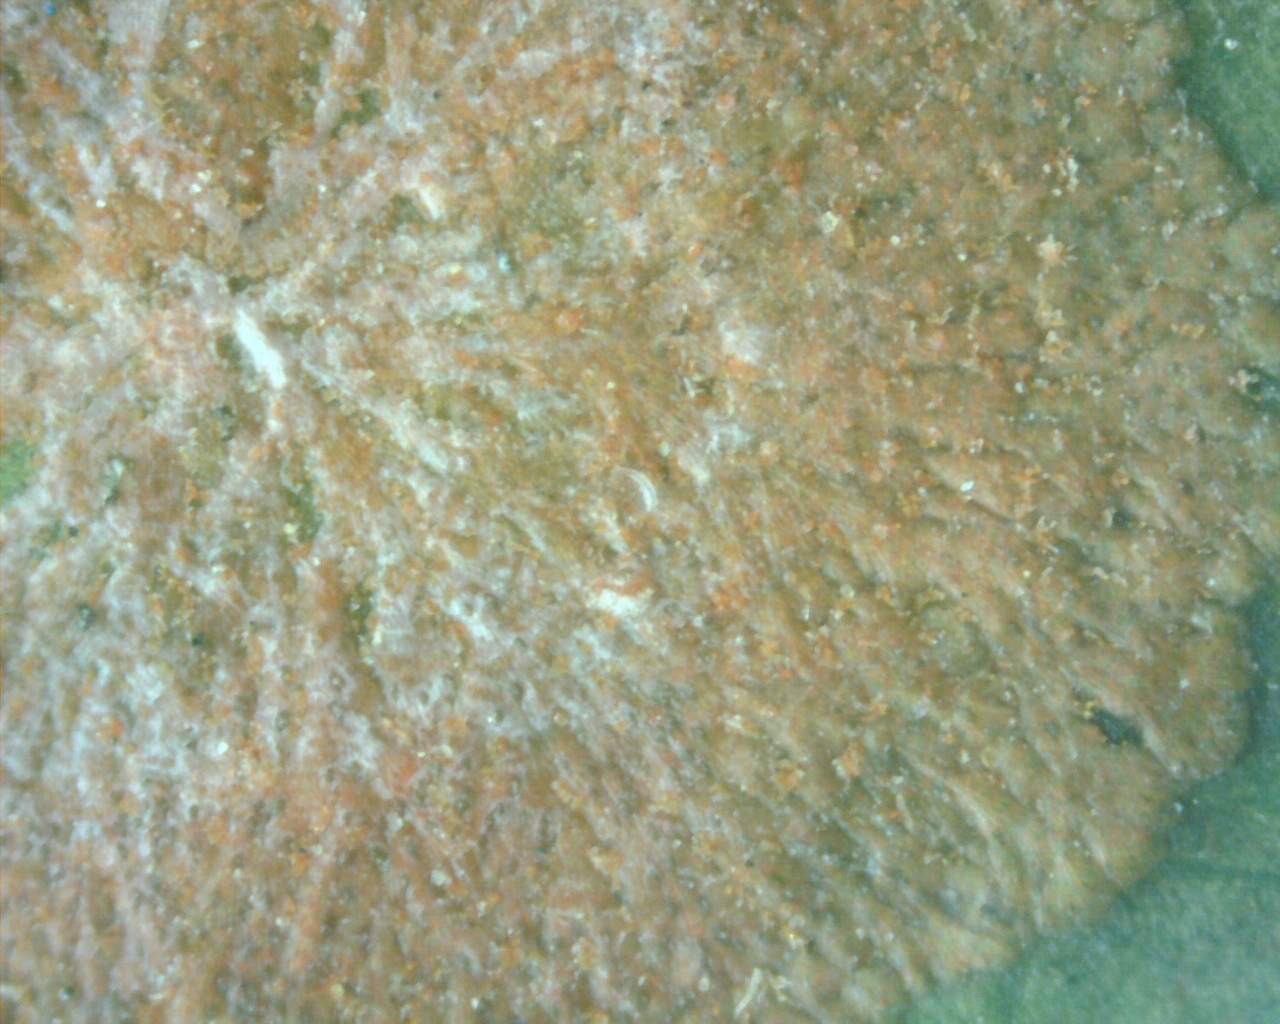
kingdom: Plantae
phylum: Chlorophyta
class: Ulvophyceae
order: Trentepohliales
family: Trentepohliaceae
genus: Cephaleuros
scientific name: Cephaleuros virescens
